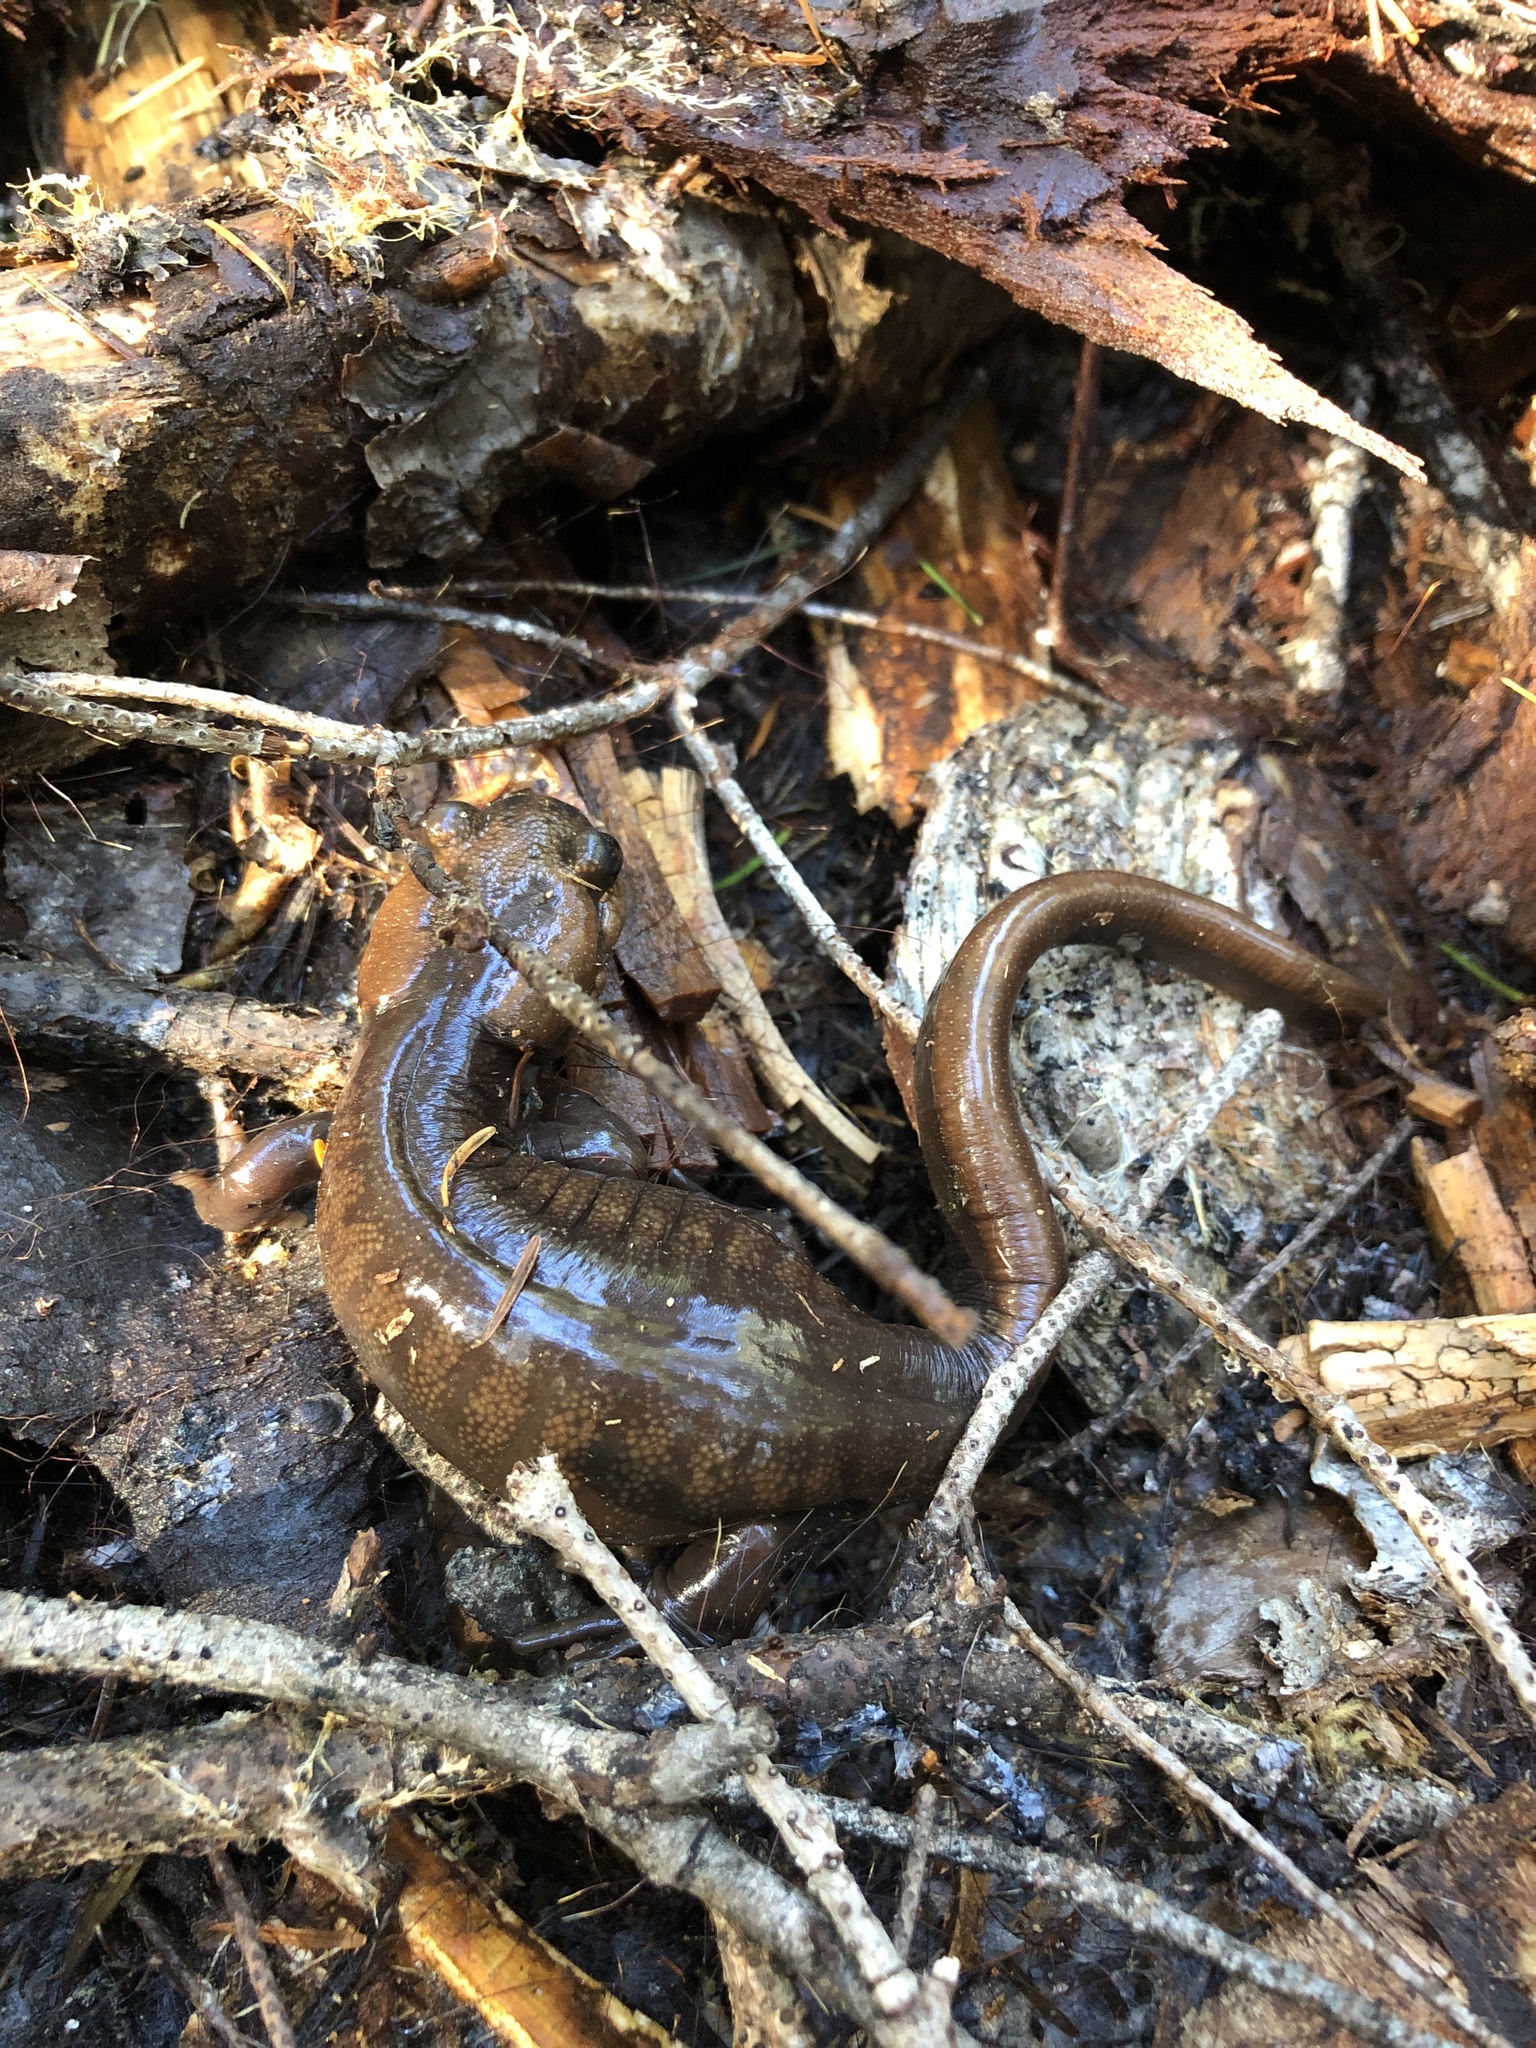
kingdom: Animalia
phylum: Chordata
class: Amphibia
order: Caudata
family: Ambystomatidae
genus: Ambystoma
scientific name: Ambystoma gracile
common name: Northwestern salamander
